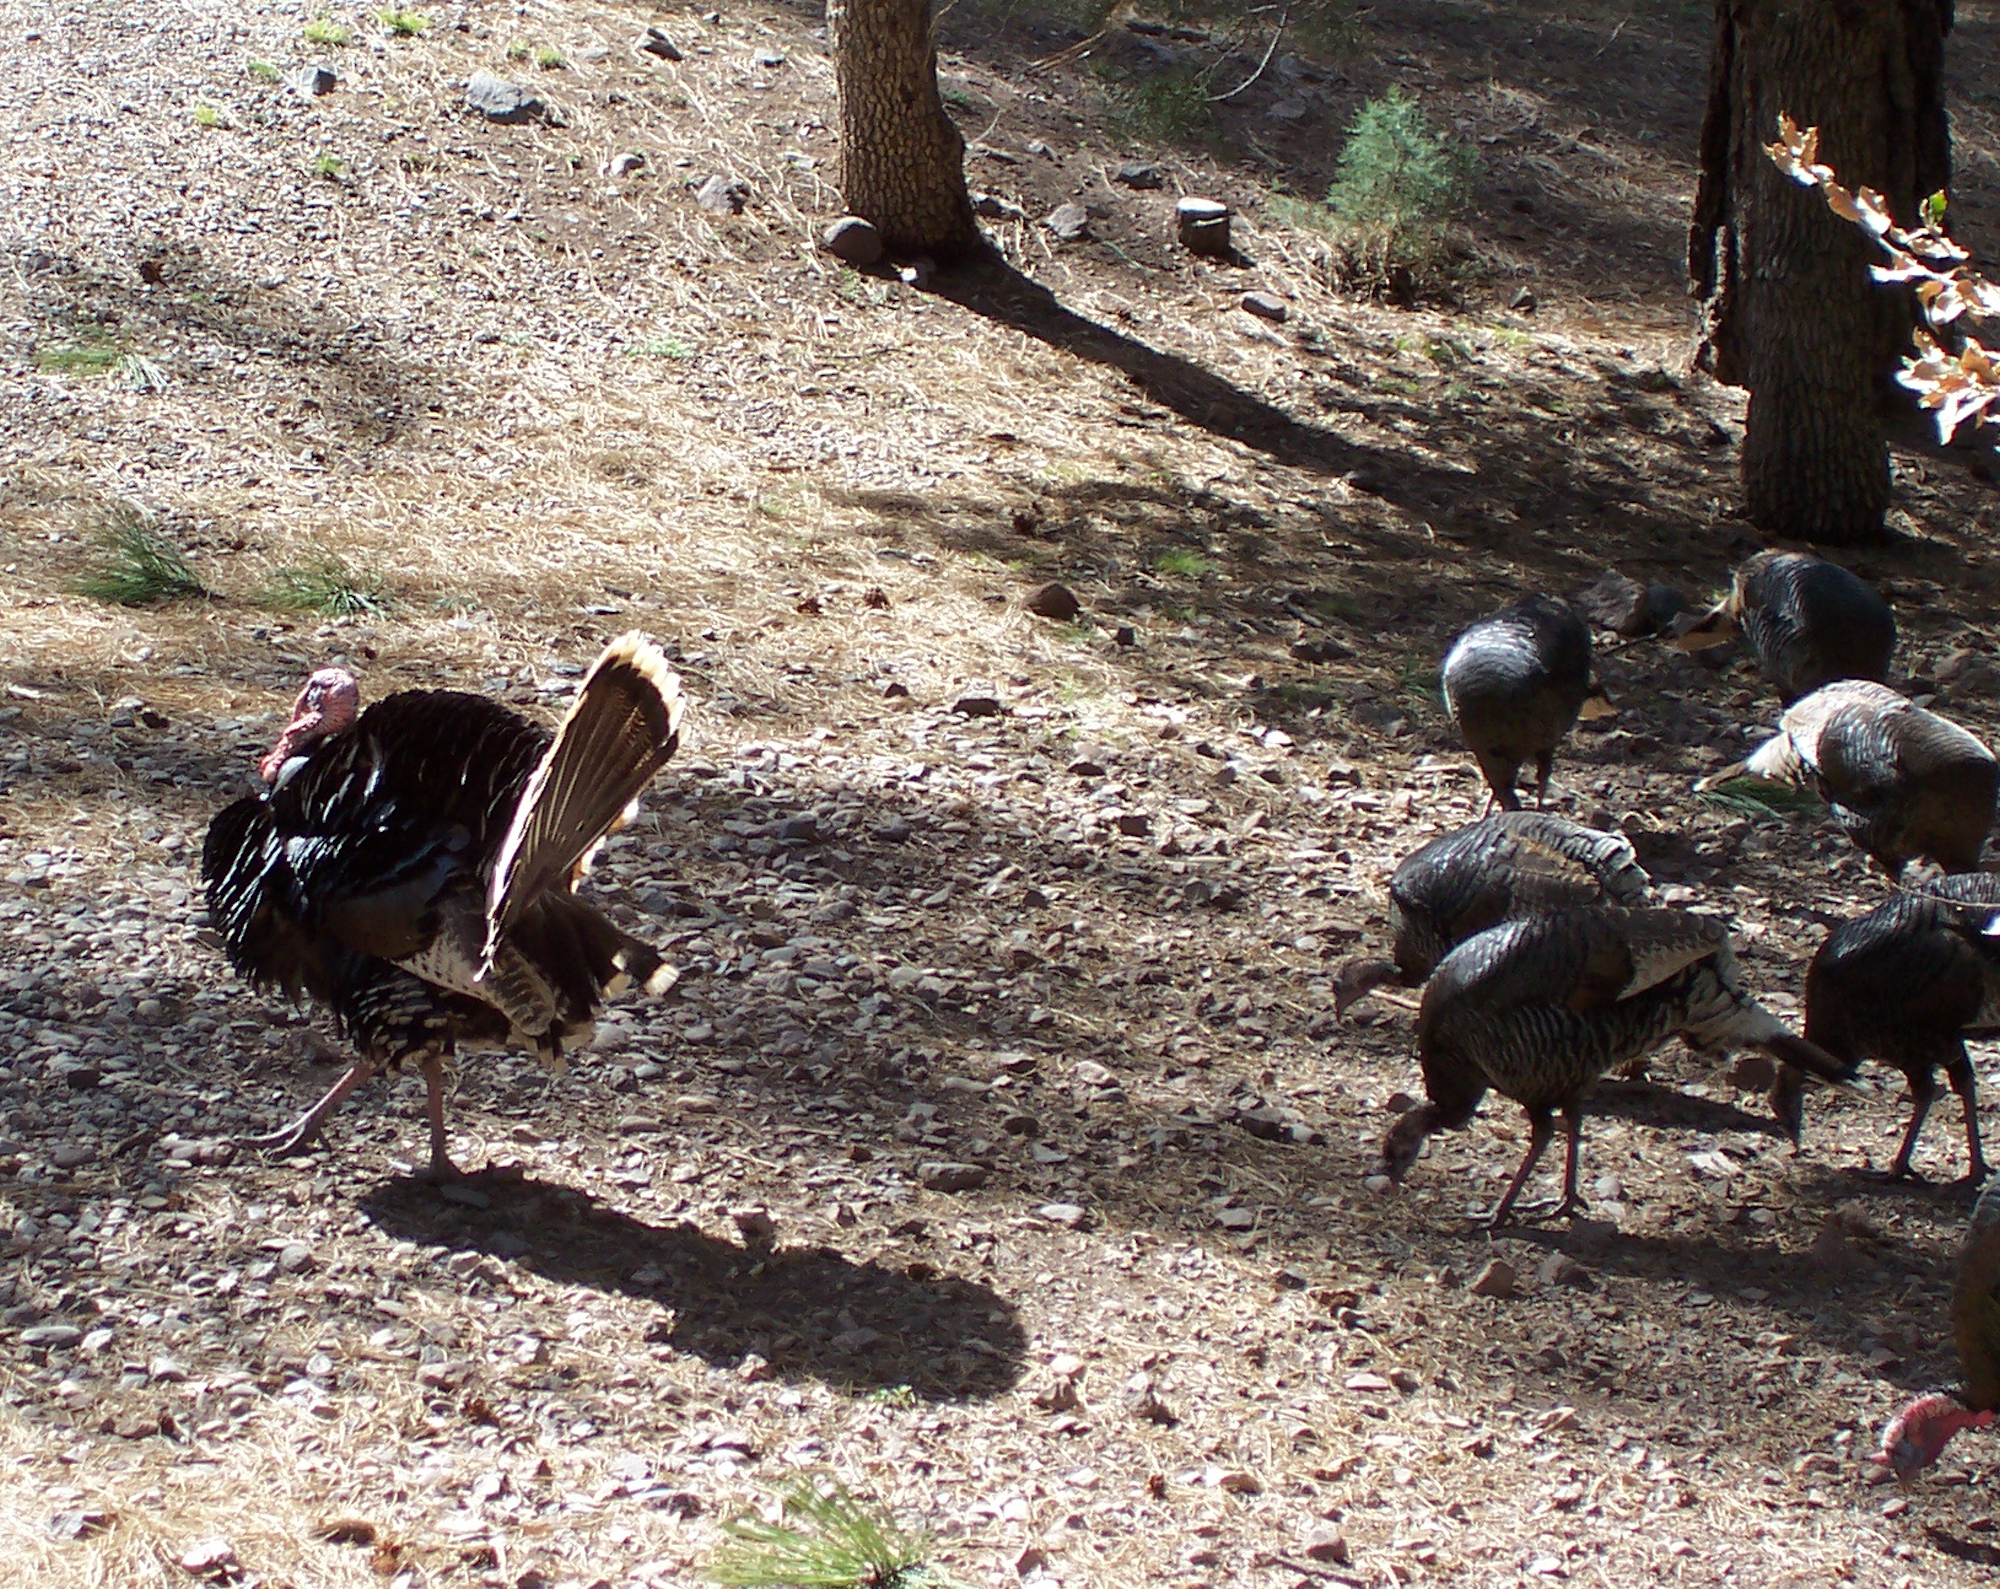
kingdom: Animalia
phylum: Chordata
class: Aves
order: Galliformes
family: Phasianidae
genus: Meleagris
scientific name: Meleagris gallopavo
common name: Wild turkey
